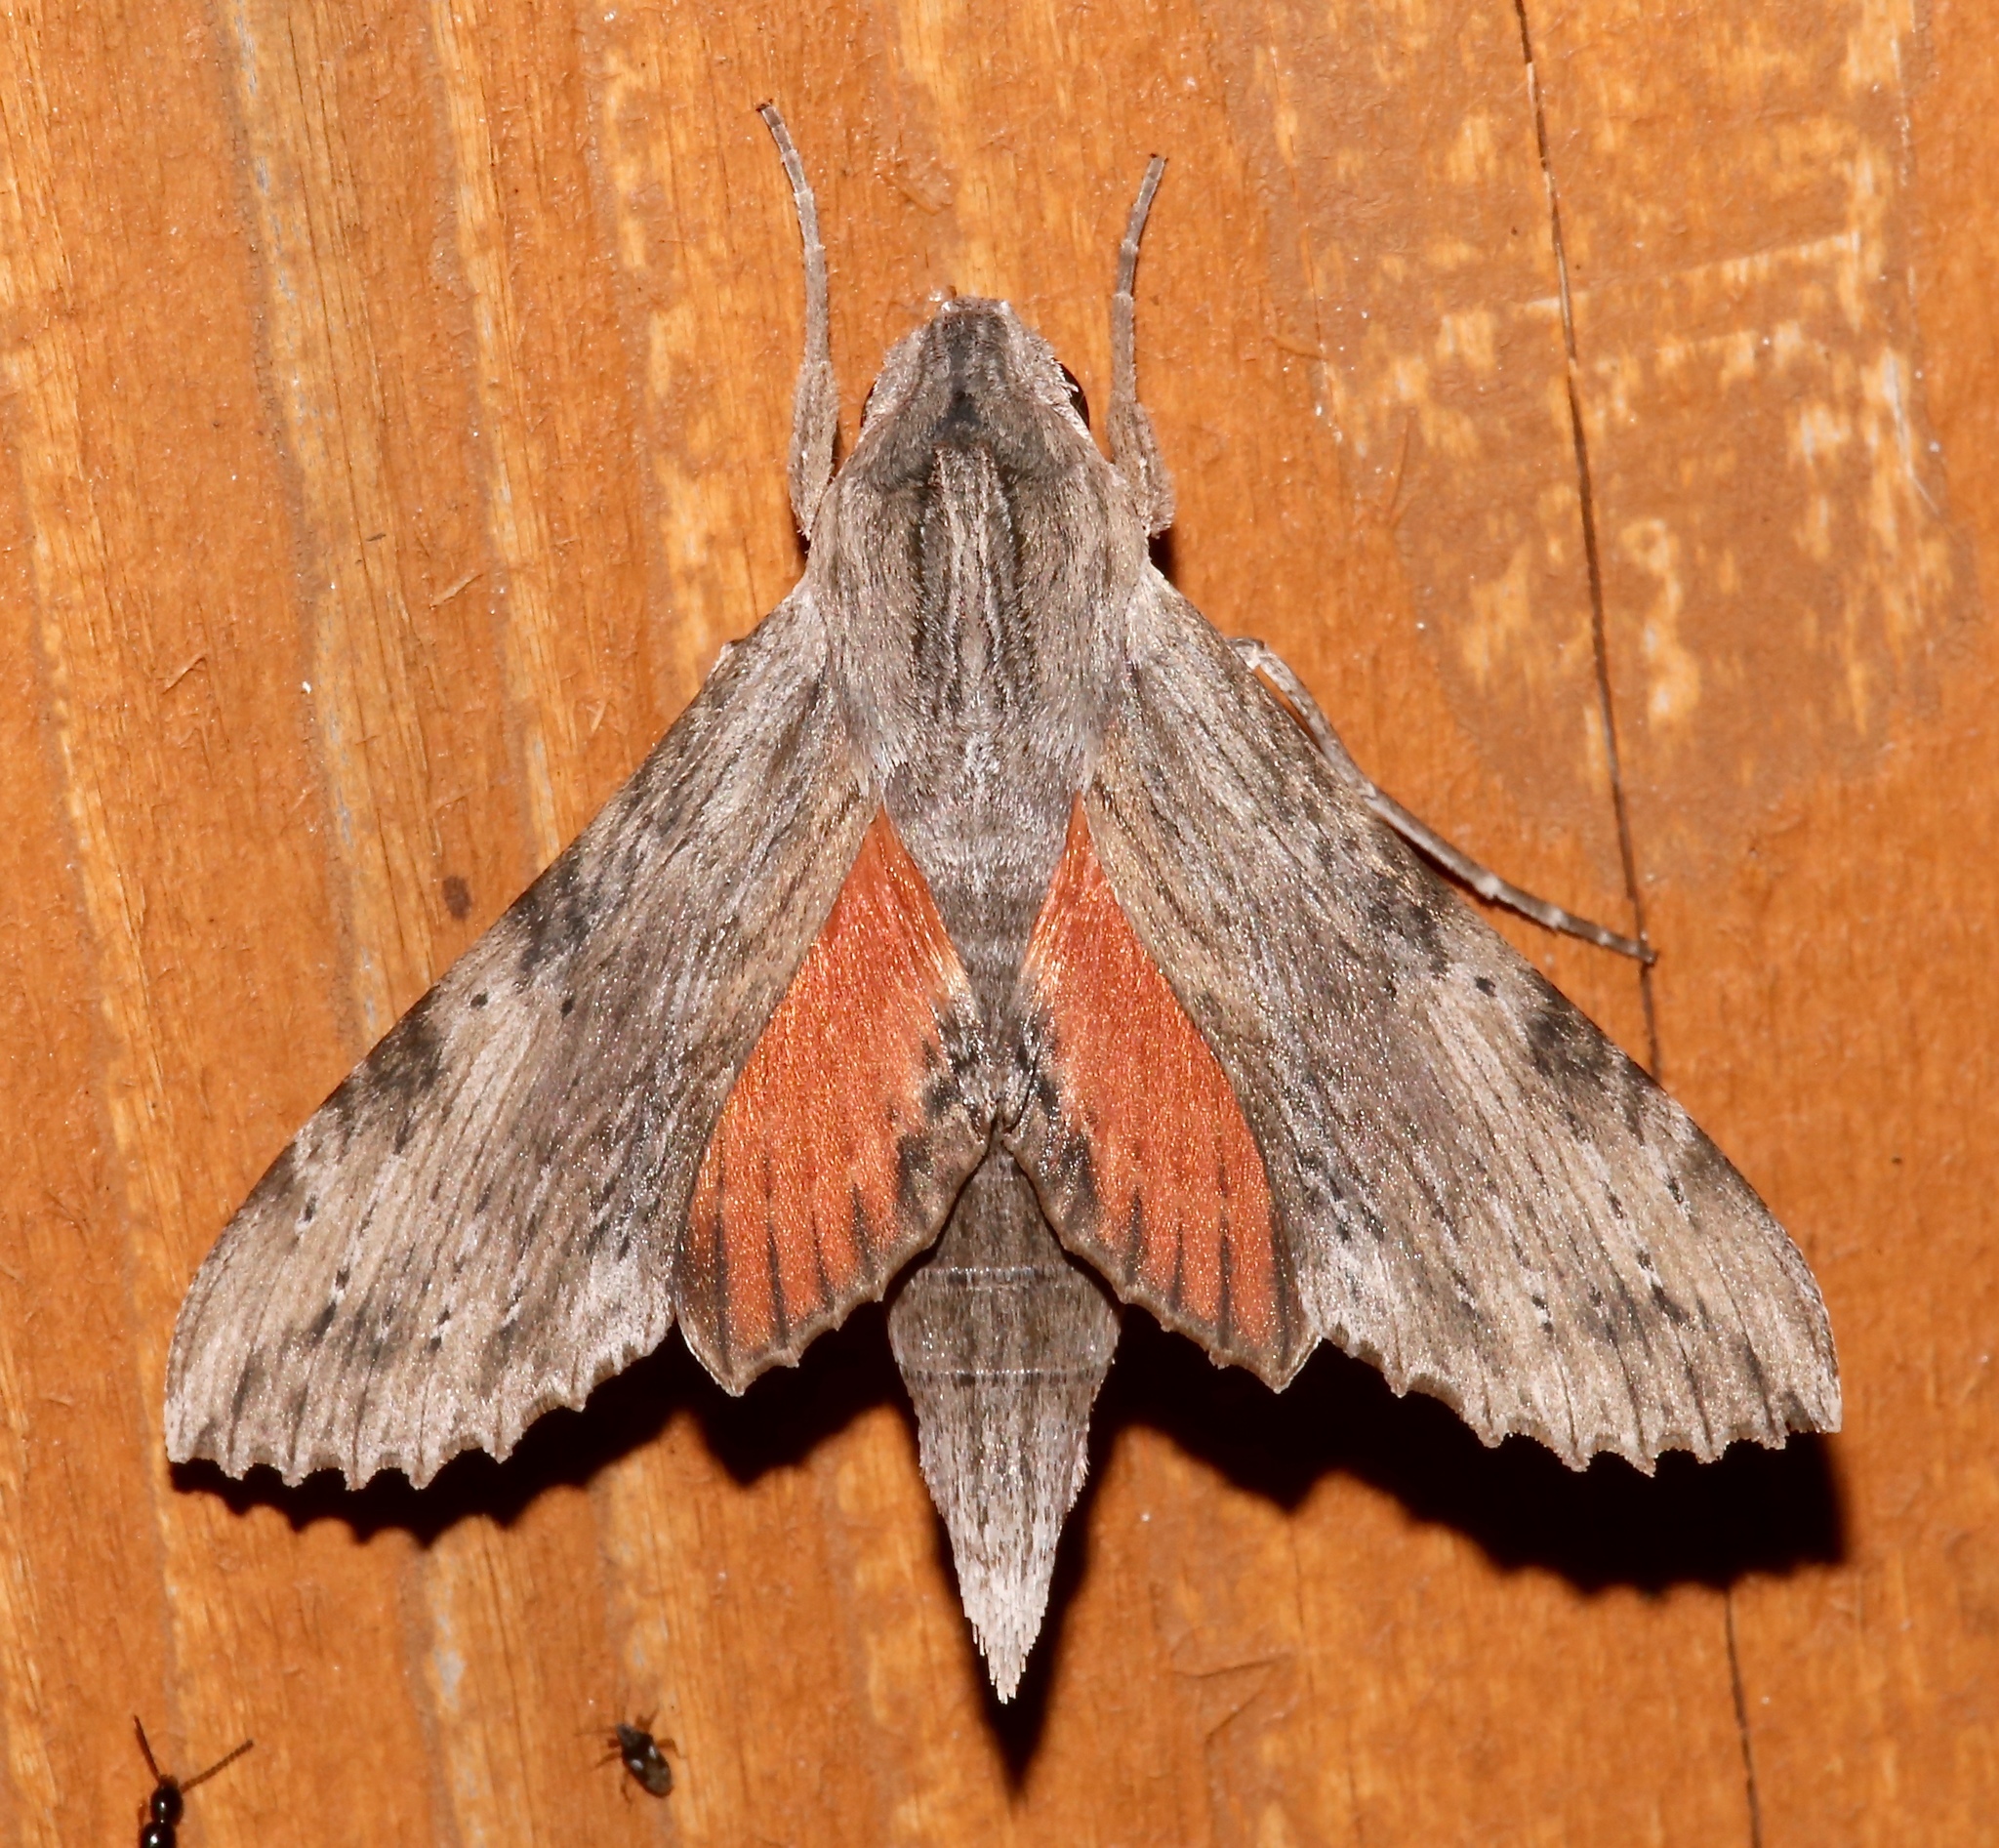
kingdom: Animalia
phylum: Arthropoda
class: Insecta
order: Lepidoptera
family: Sphingidae
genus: Erinnyis
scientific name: Erinnyis obscura
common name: Obscure sphinx
